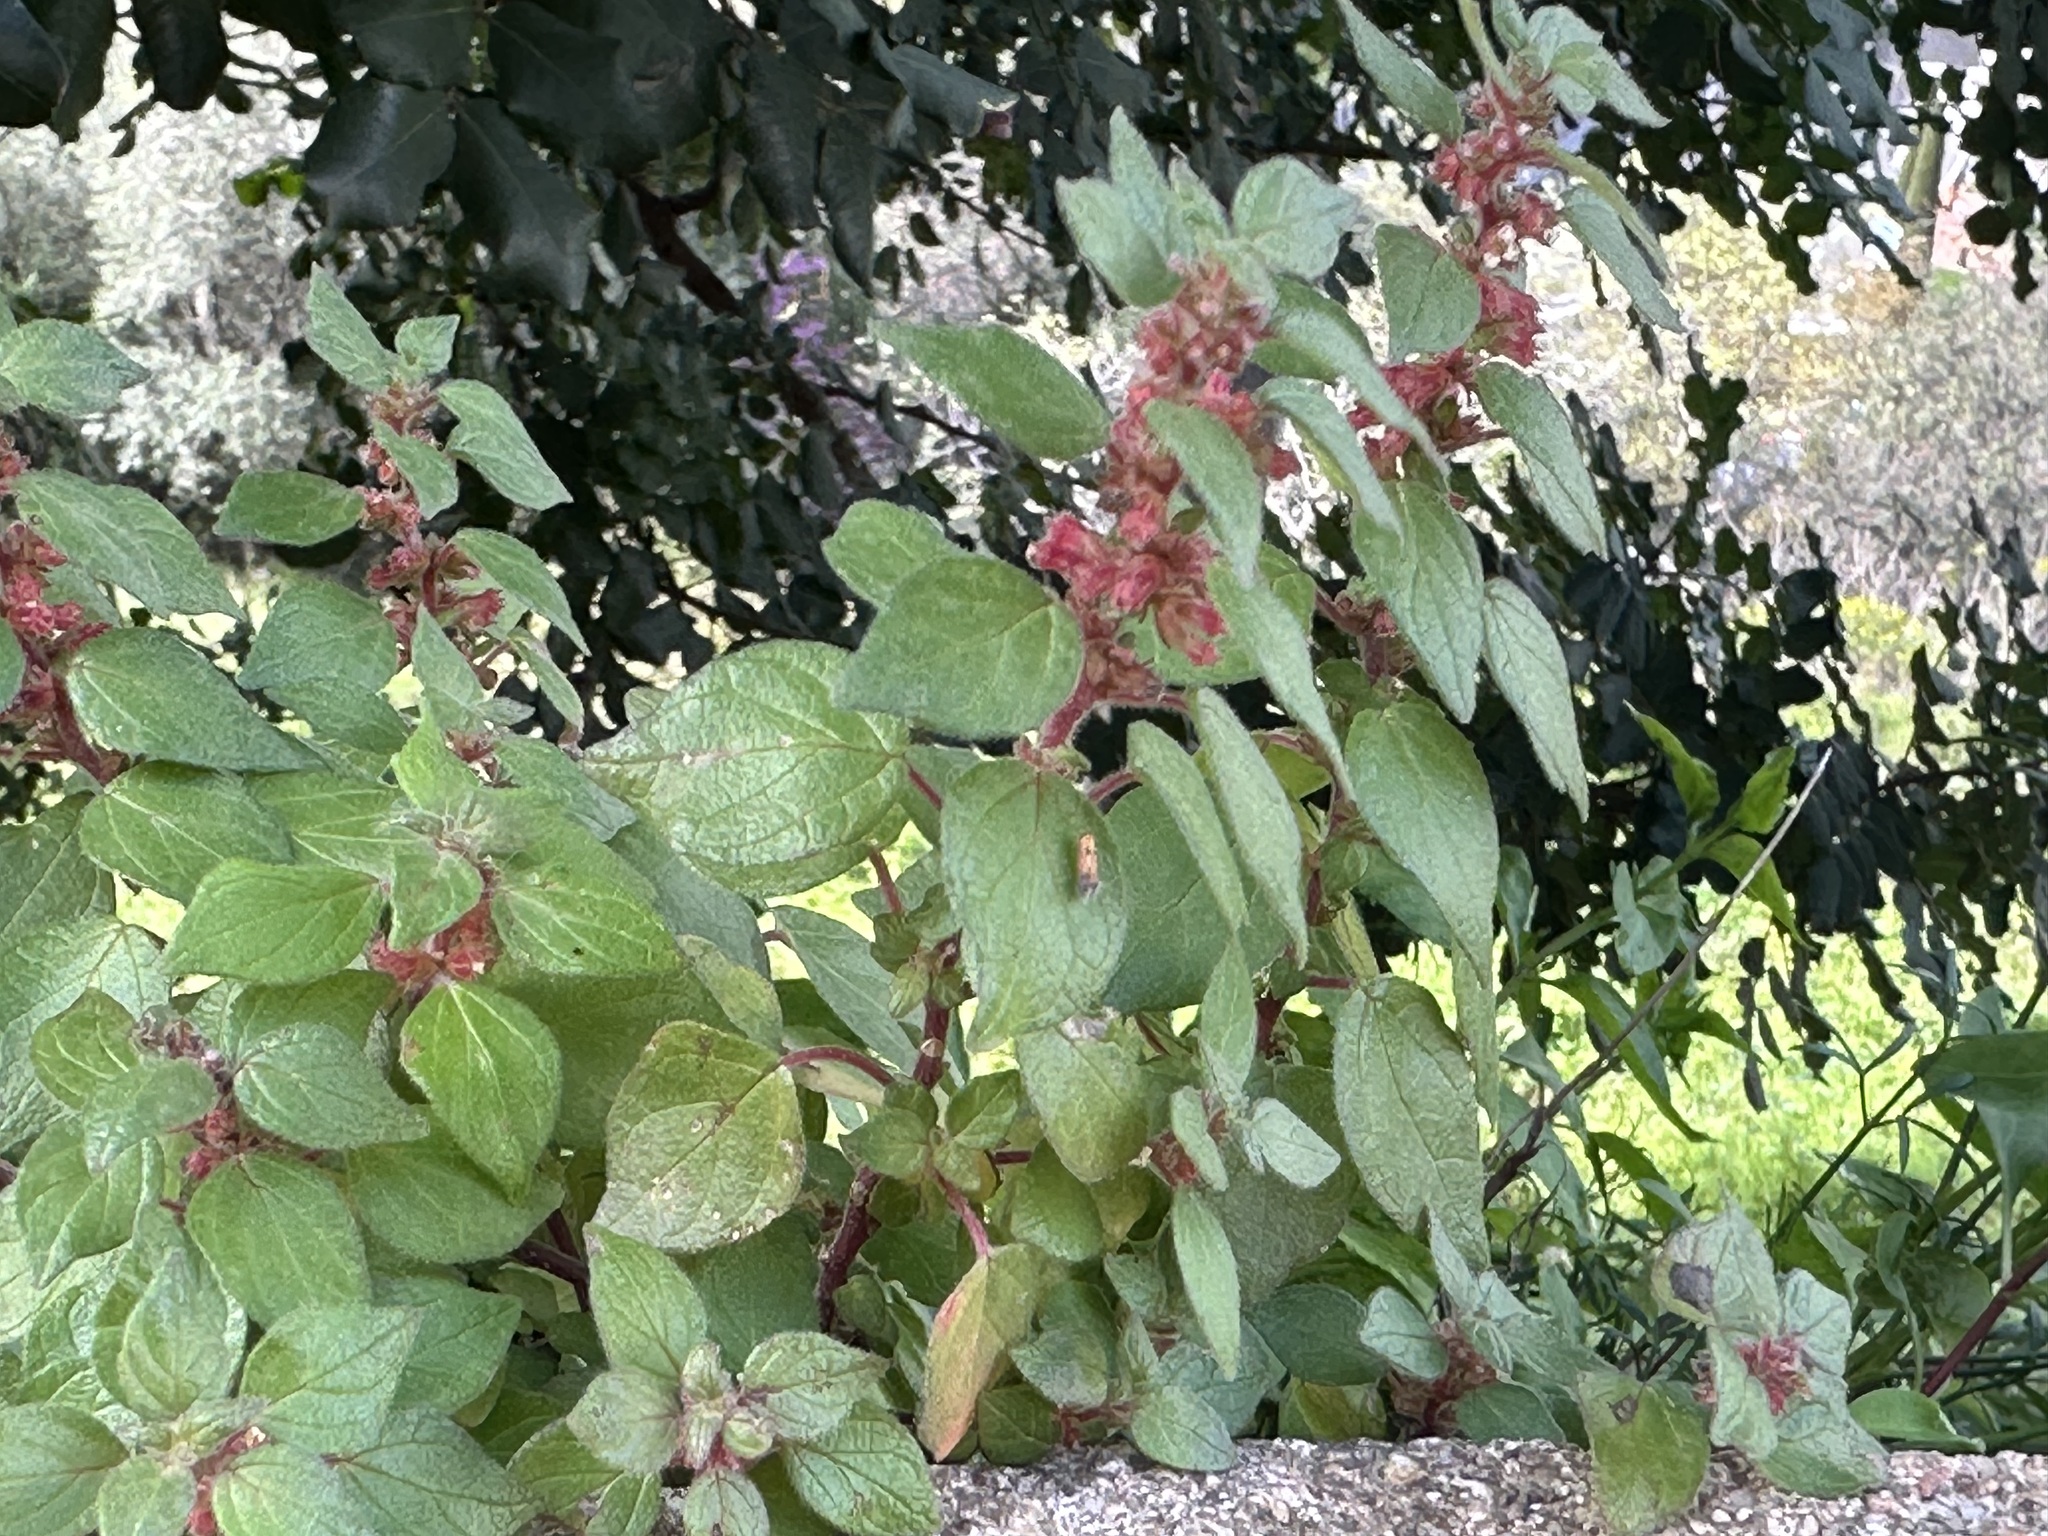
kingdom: Plantae
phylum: Tracheophyta
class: Magnoliopsida
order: Rosales
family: Urticaceae
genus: Parietaria
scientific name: Parietaria judaica
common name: Pellitory-of-the-wall
